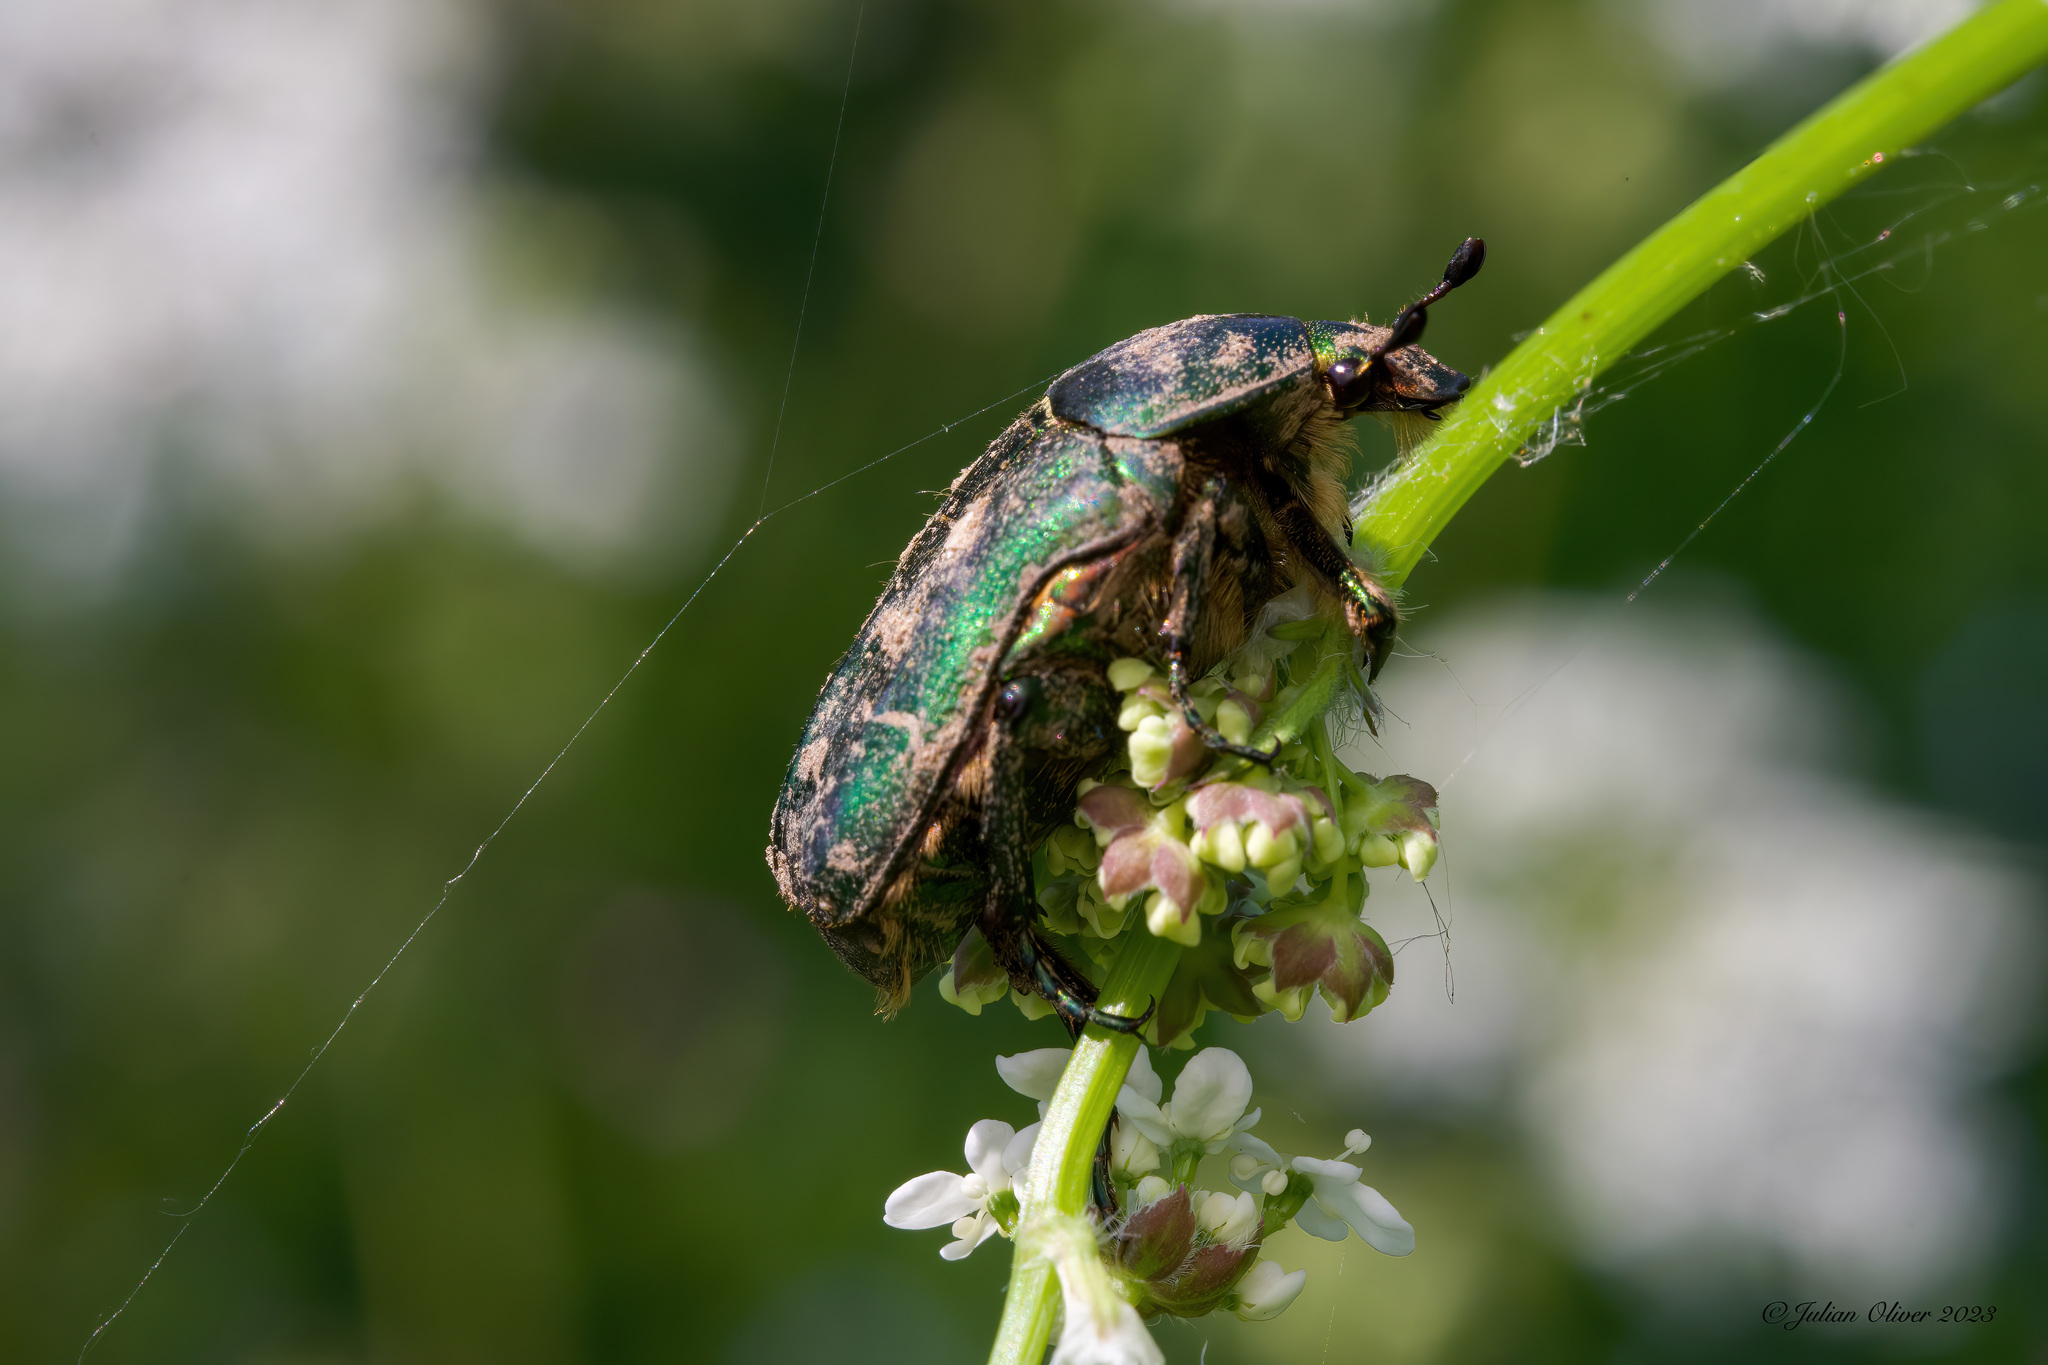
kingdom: Animalia
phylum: Arthropoda
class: Insecta
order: Coleoptera
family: Scarabaeidae
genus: Cetonia
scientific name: Cetonia aurata
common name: Rose chafer
